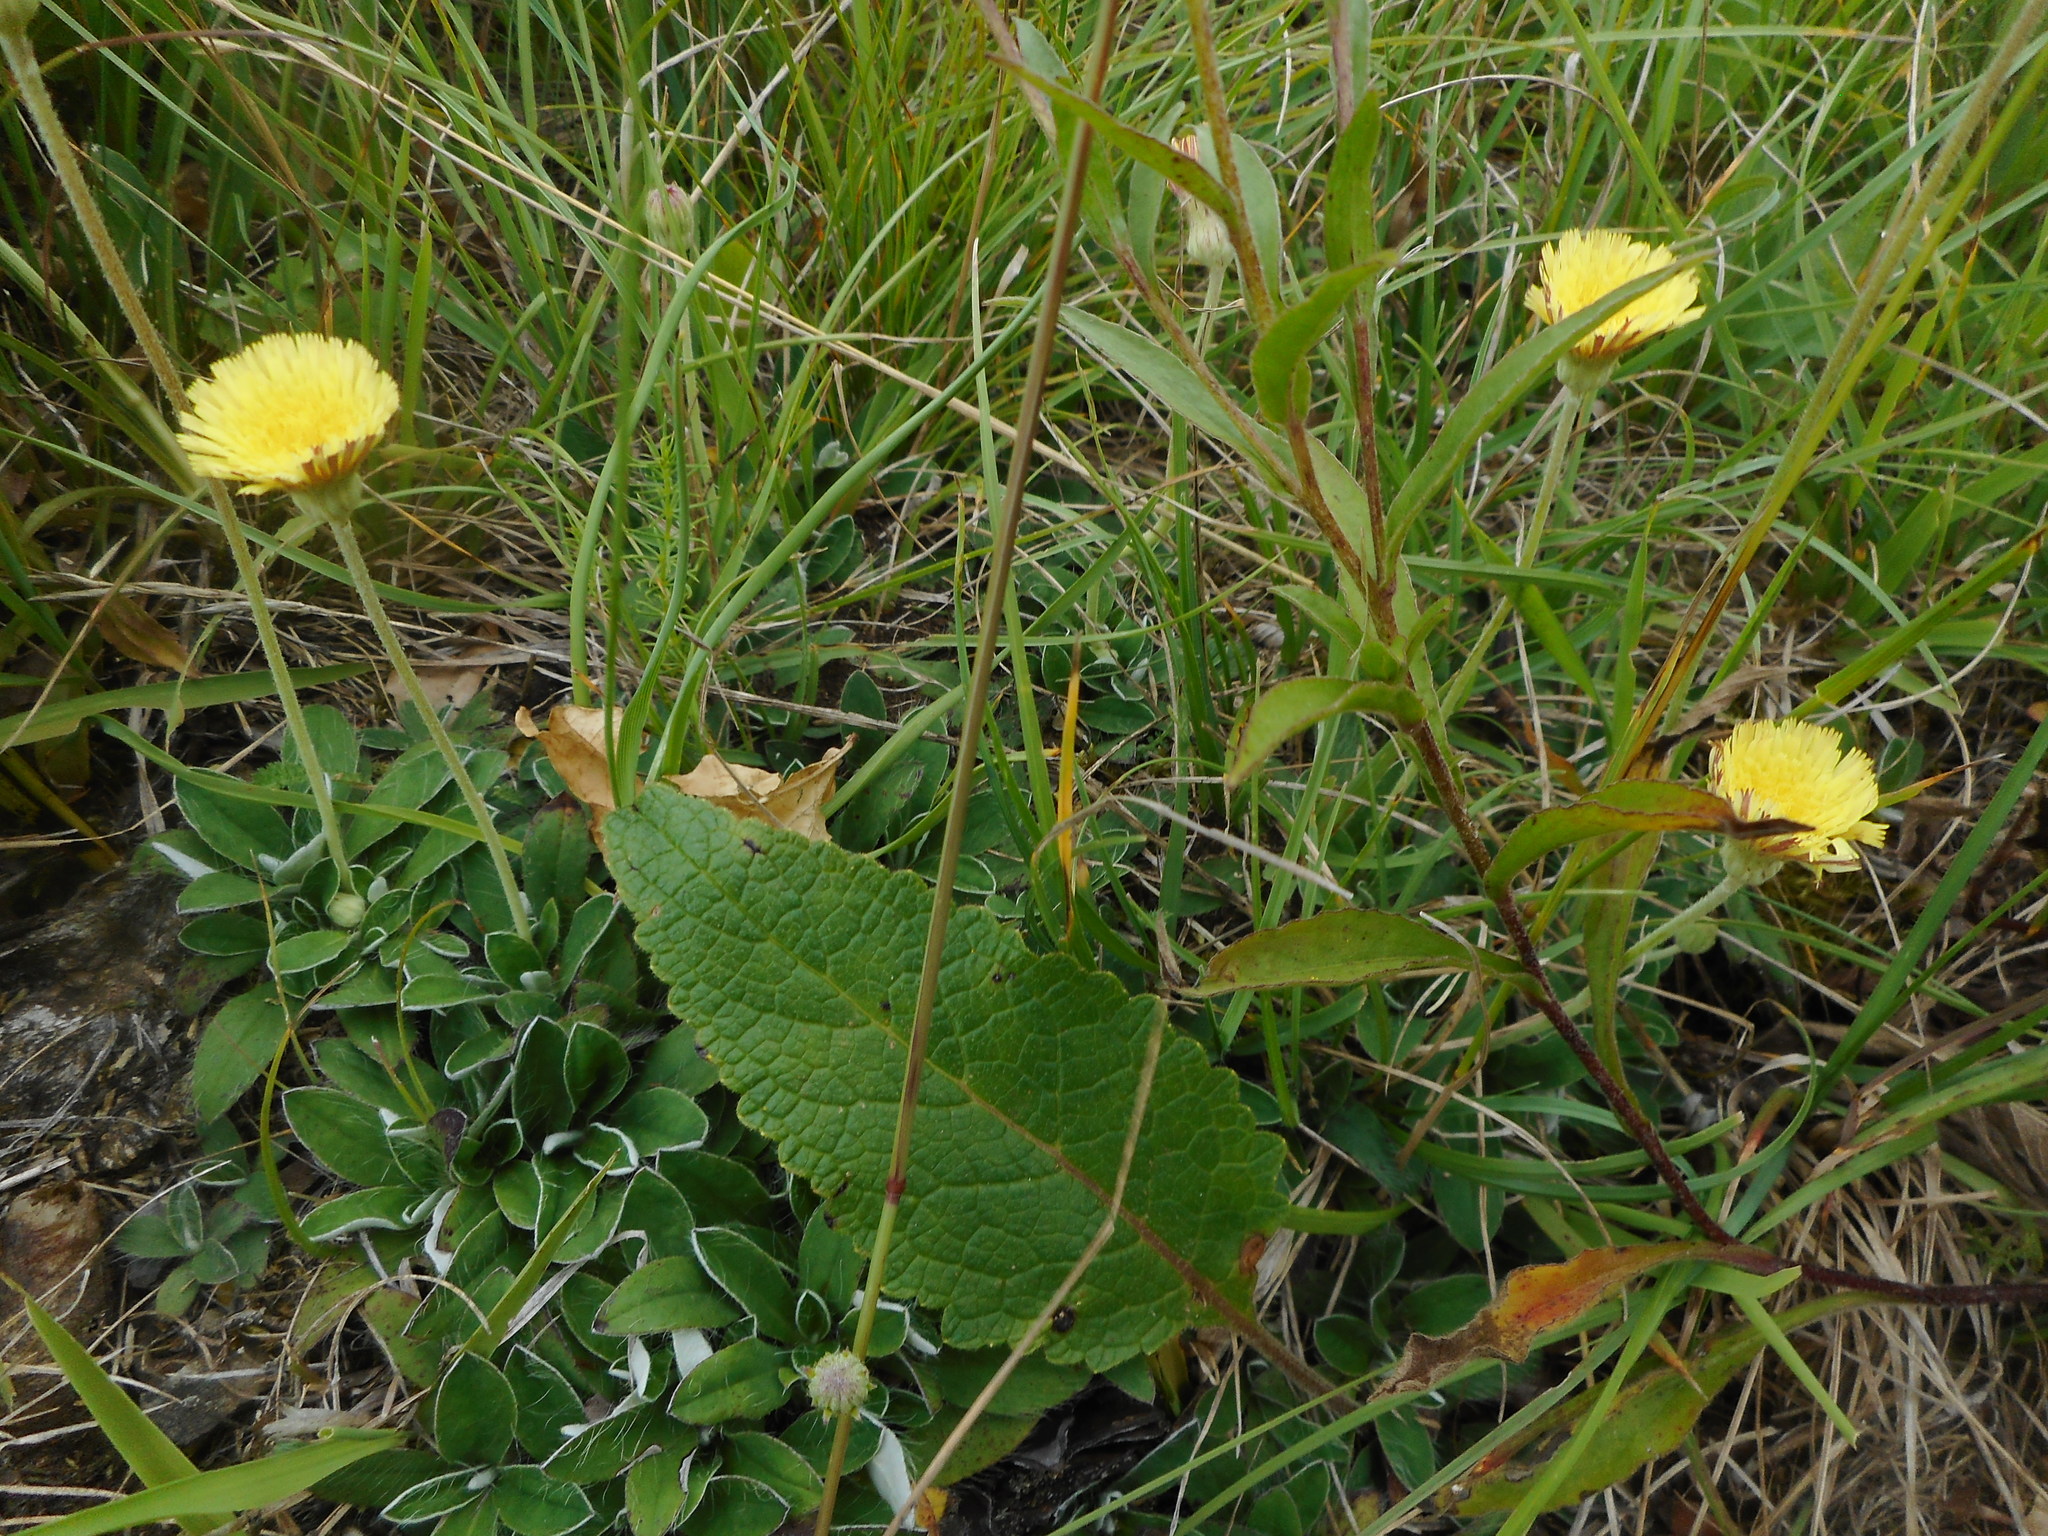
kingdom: Plantae
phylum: Tracheophyta
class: Magnoliopsida
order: Asterales
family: Asteraceae
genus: Pilosella
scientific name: Pilosella officinarum
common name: Mouse-ear hawkweed
